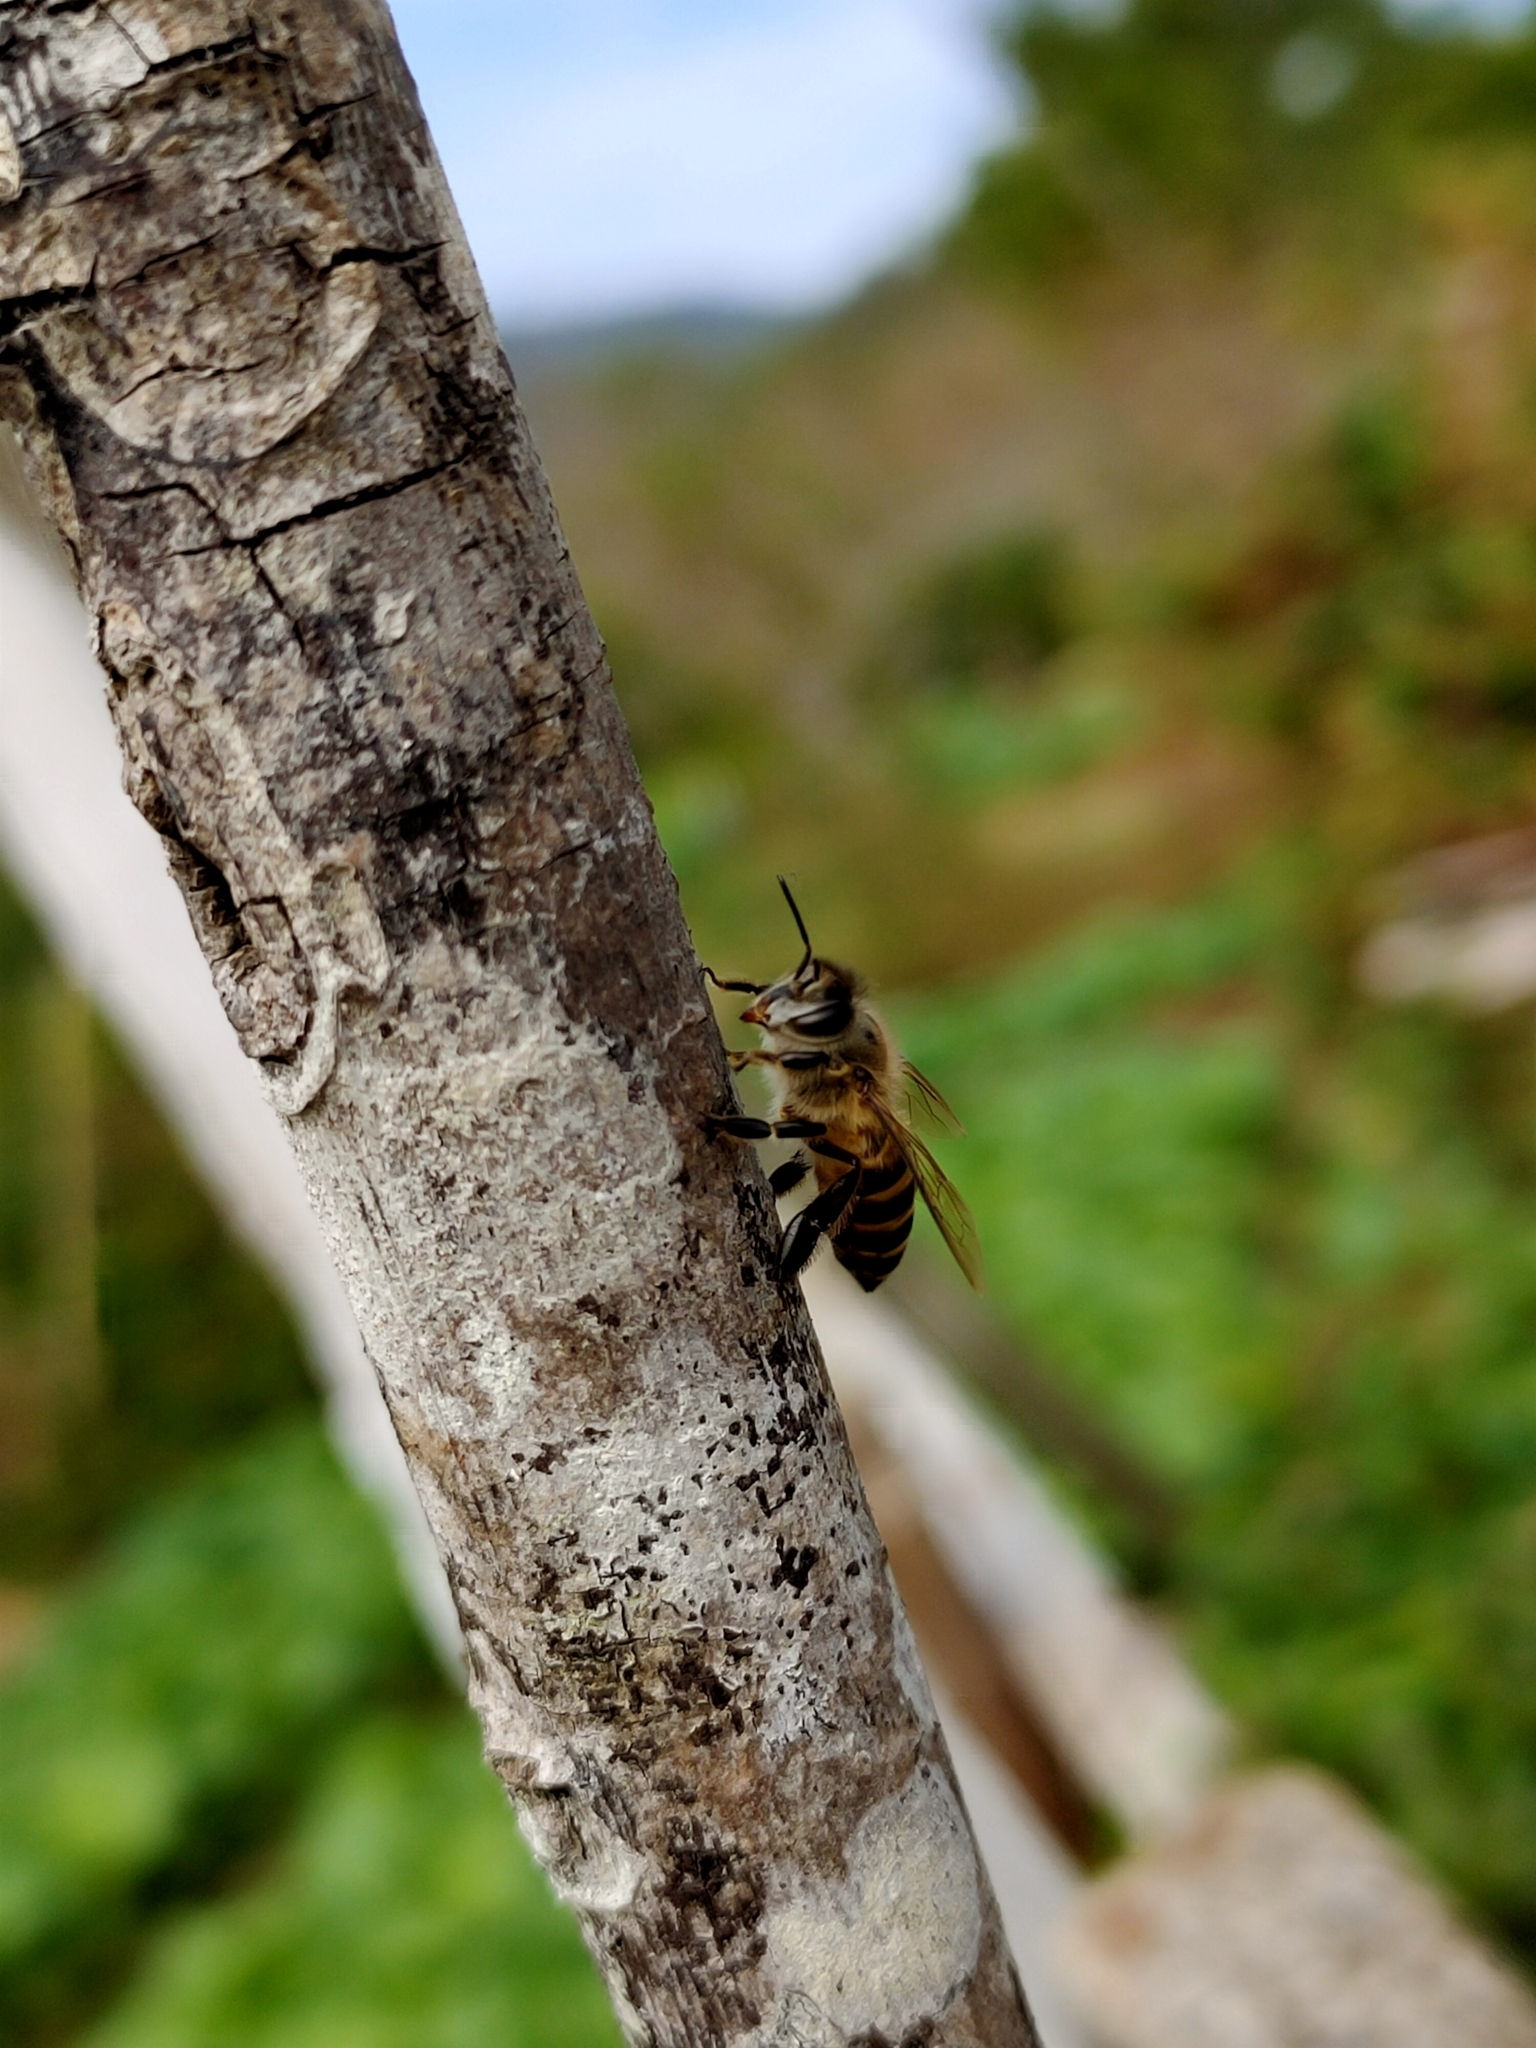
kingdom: Animalia
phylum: Arthropoda
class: Insecta
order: Hymenoptera
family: Apidae
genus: Apis
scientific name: Apis cerana
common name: Honey bee
